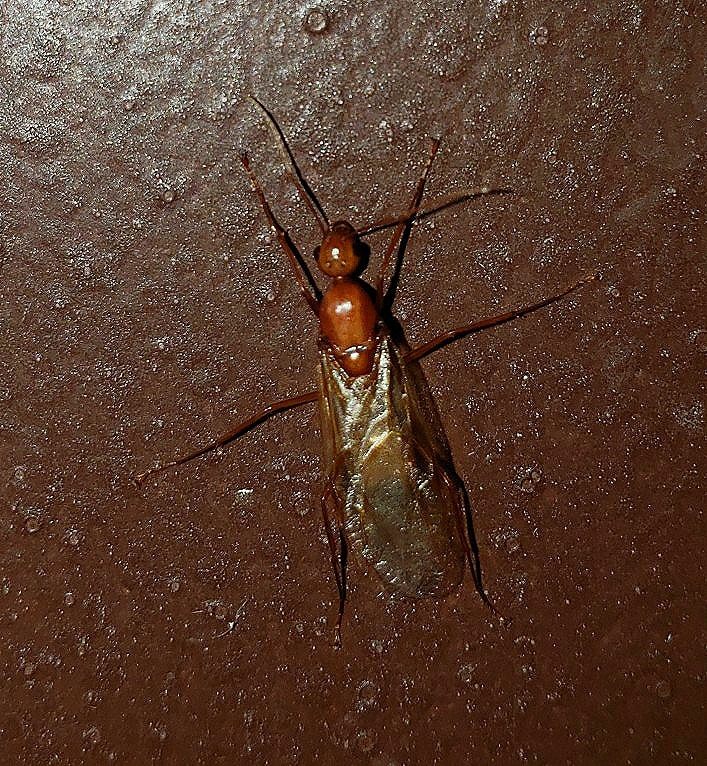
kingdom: Animalia
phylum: Arthropoda
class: Insecta
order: Hymenoptera
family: Formicidae
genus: Camponotus
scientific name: Camponotus castaneus
